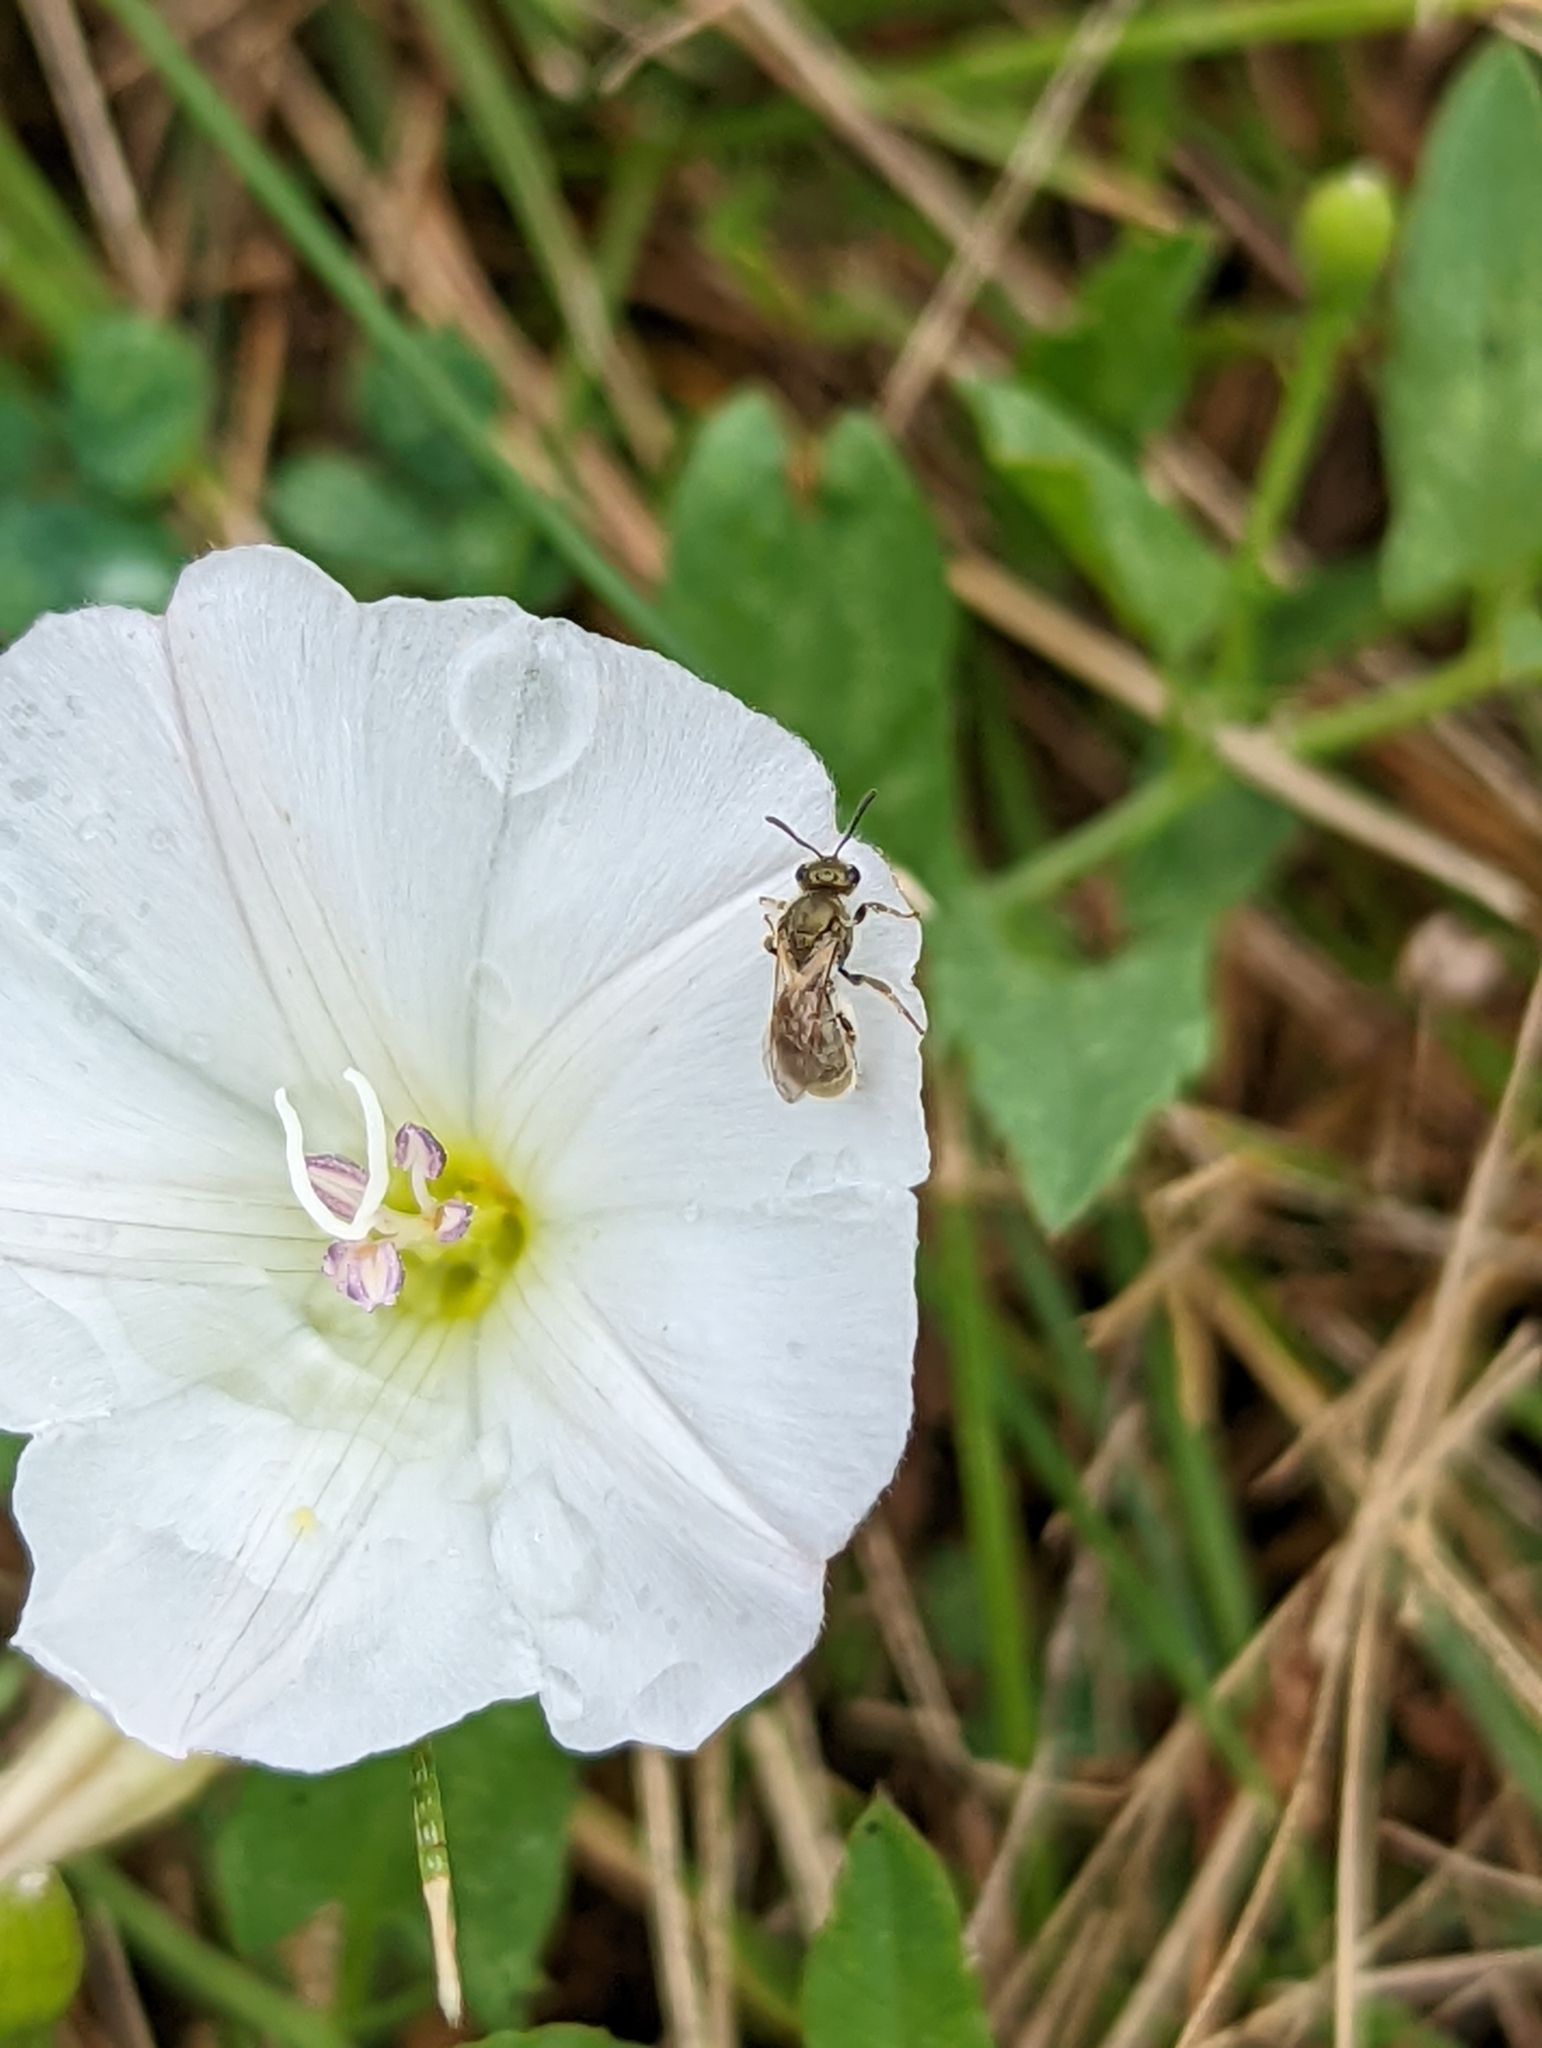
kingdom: Animalia
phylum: Arthropoda
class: Insecta
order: Hymenoptera
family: Halictidae
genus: Halictus
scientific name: Halictus confusus
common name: Southern bronze furrow bee
